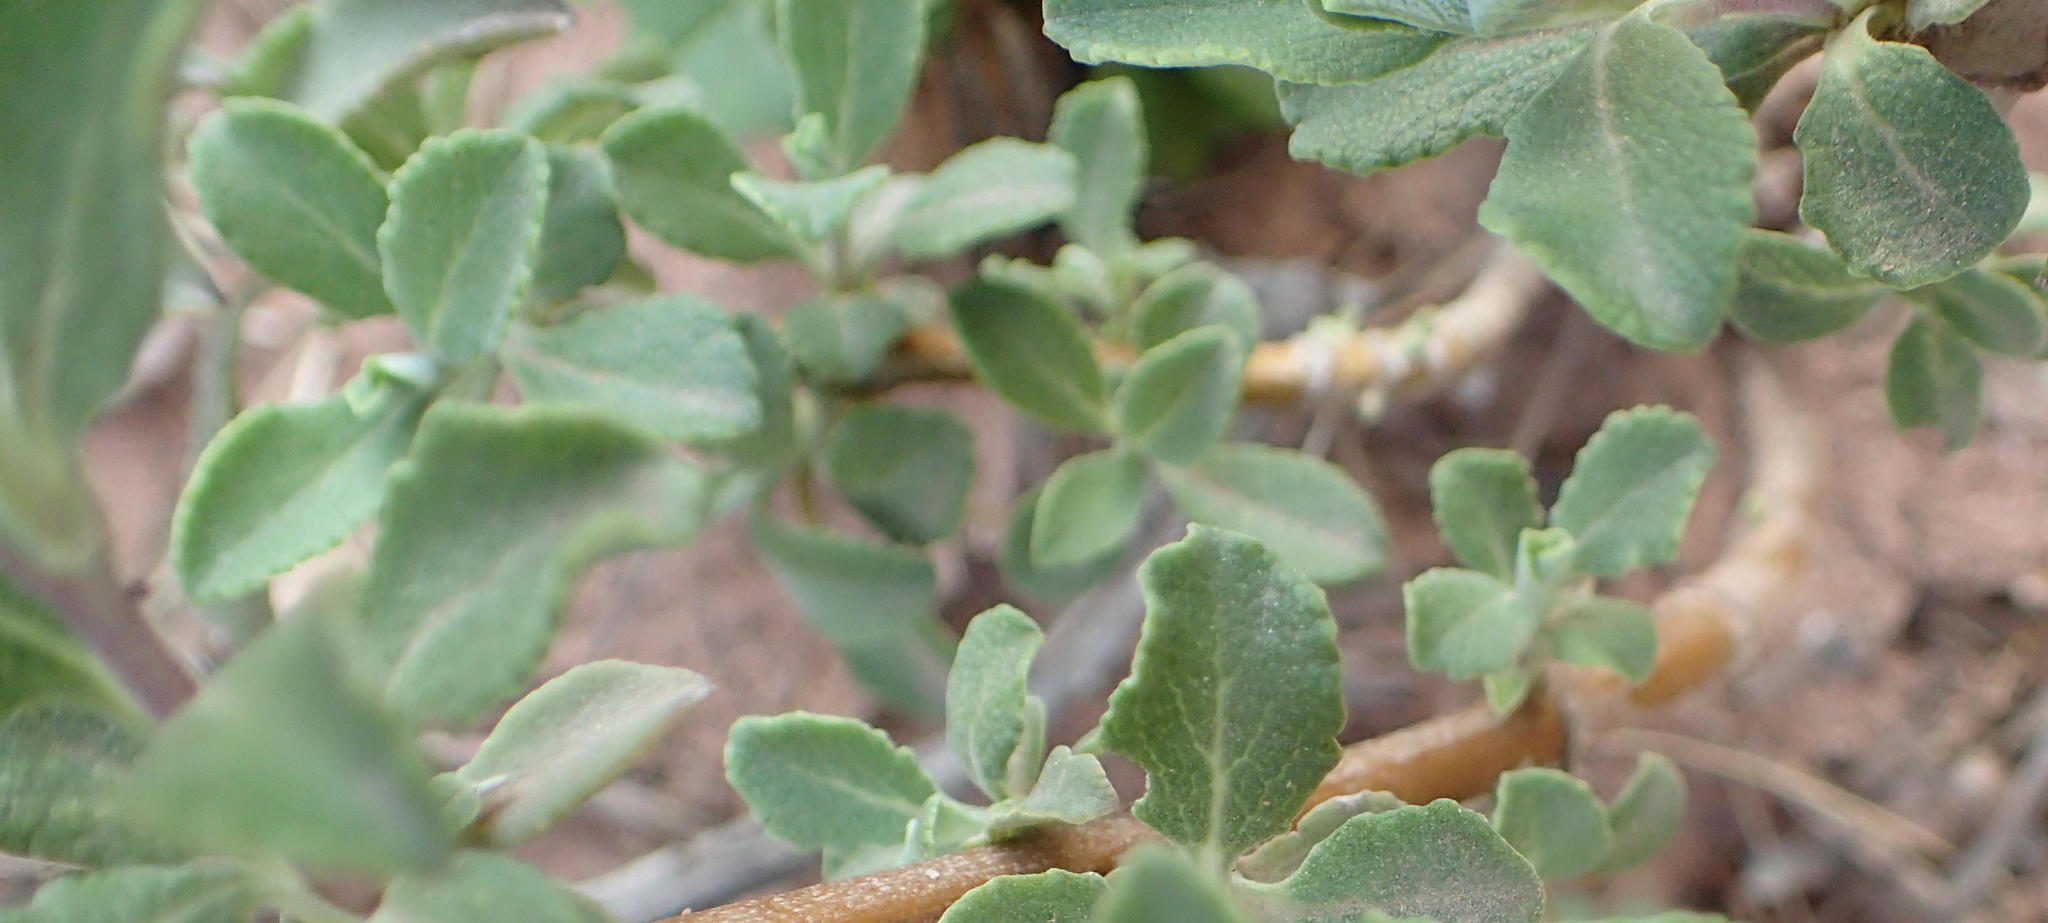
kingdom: Plantae
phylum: Tracheophyta
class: Magnoliopsida
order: Lamiales
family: Lamiaceae
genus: Salvia
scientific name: Salvia africana
